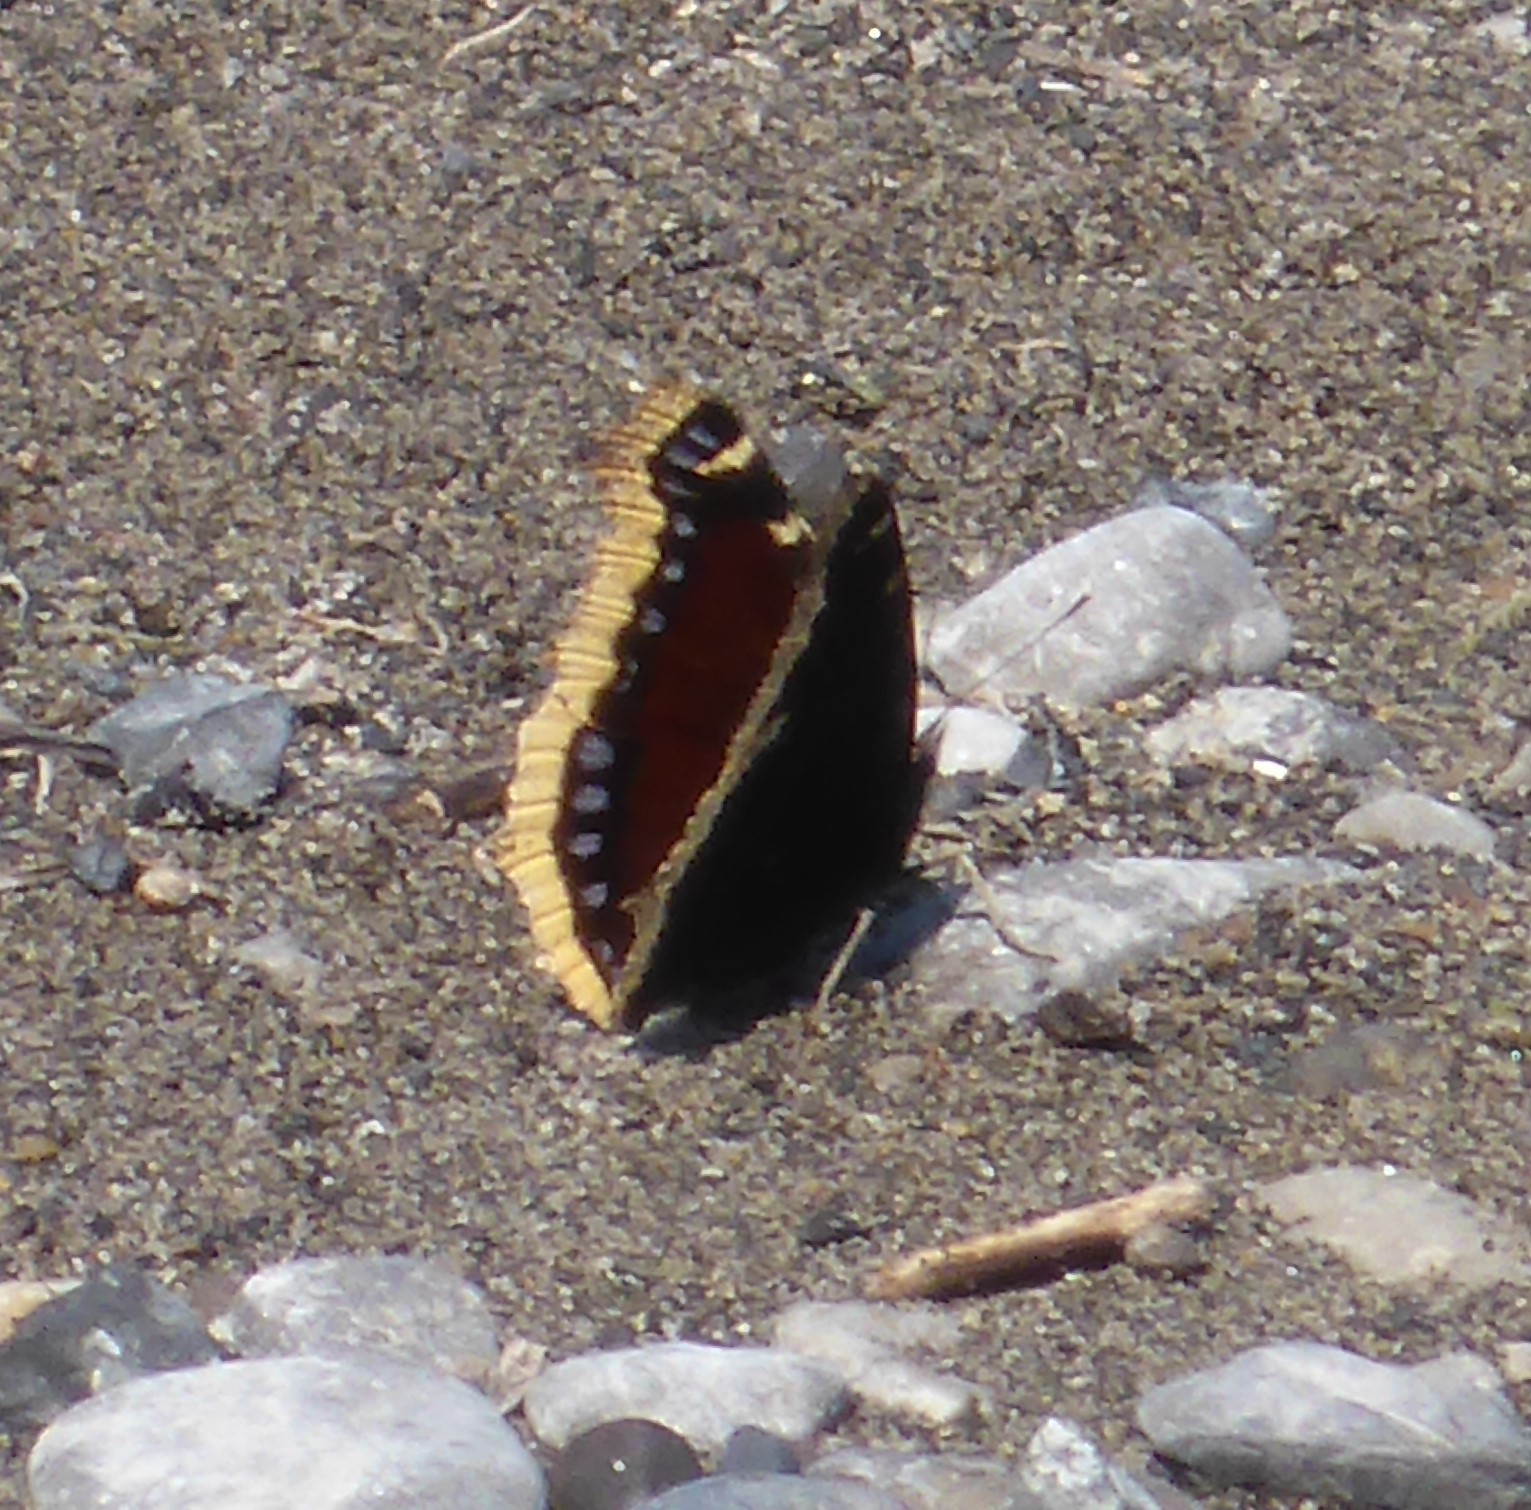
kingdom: Animalia
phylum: Arthropoda
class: Insecta
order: Lepidoptera
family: Nymphalidae
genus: Nymphalis
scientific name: Nymphalis antiopa
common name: Camberwell beauty
